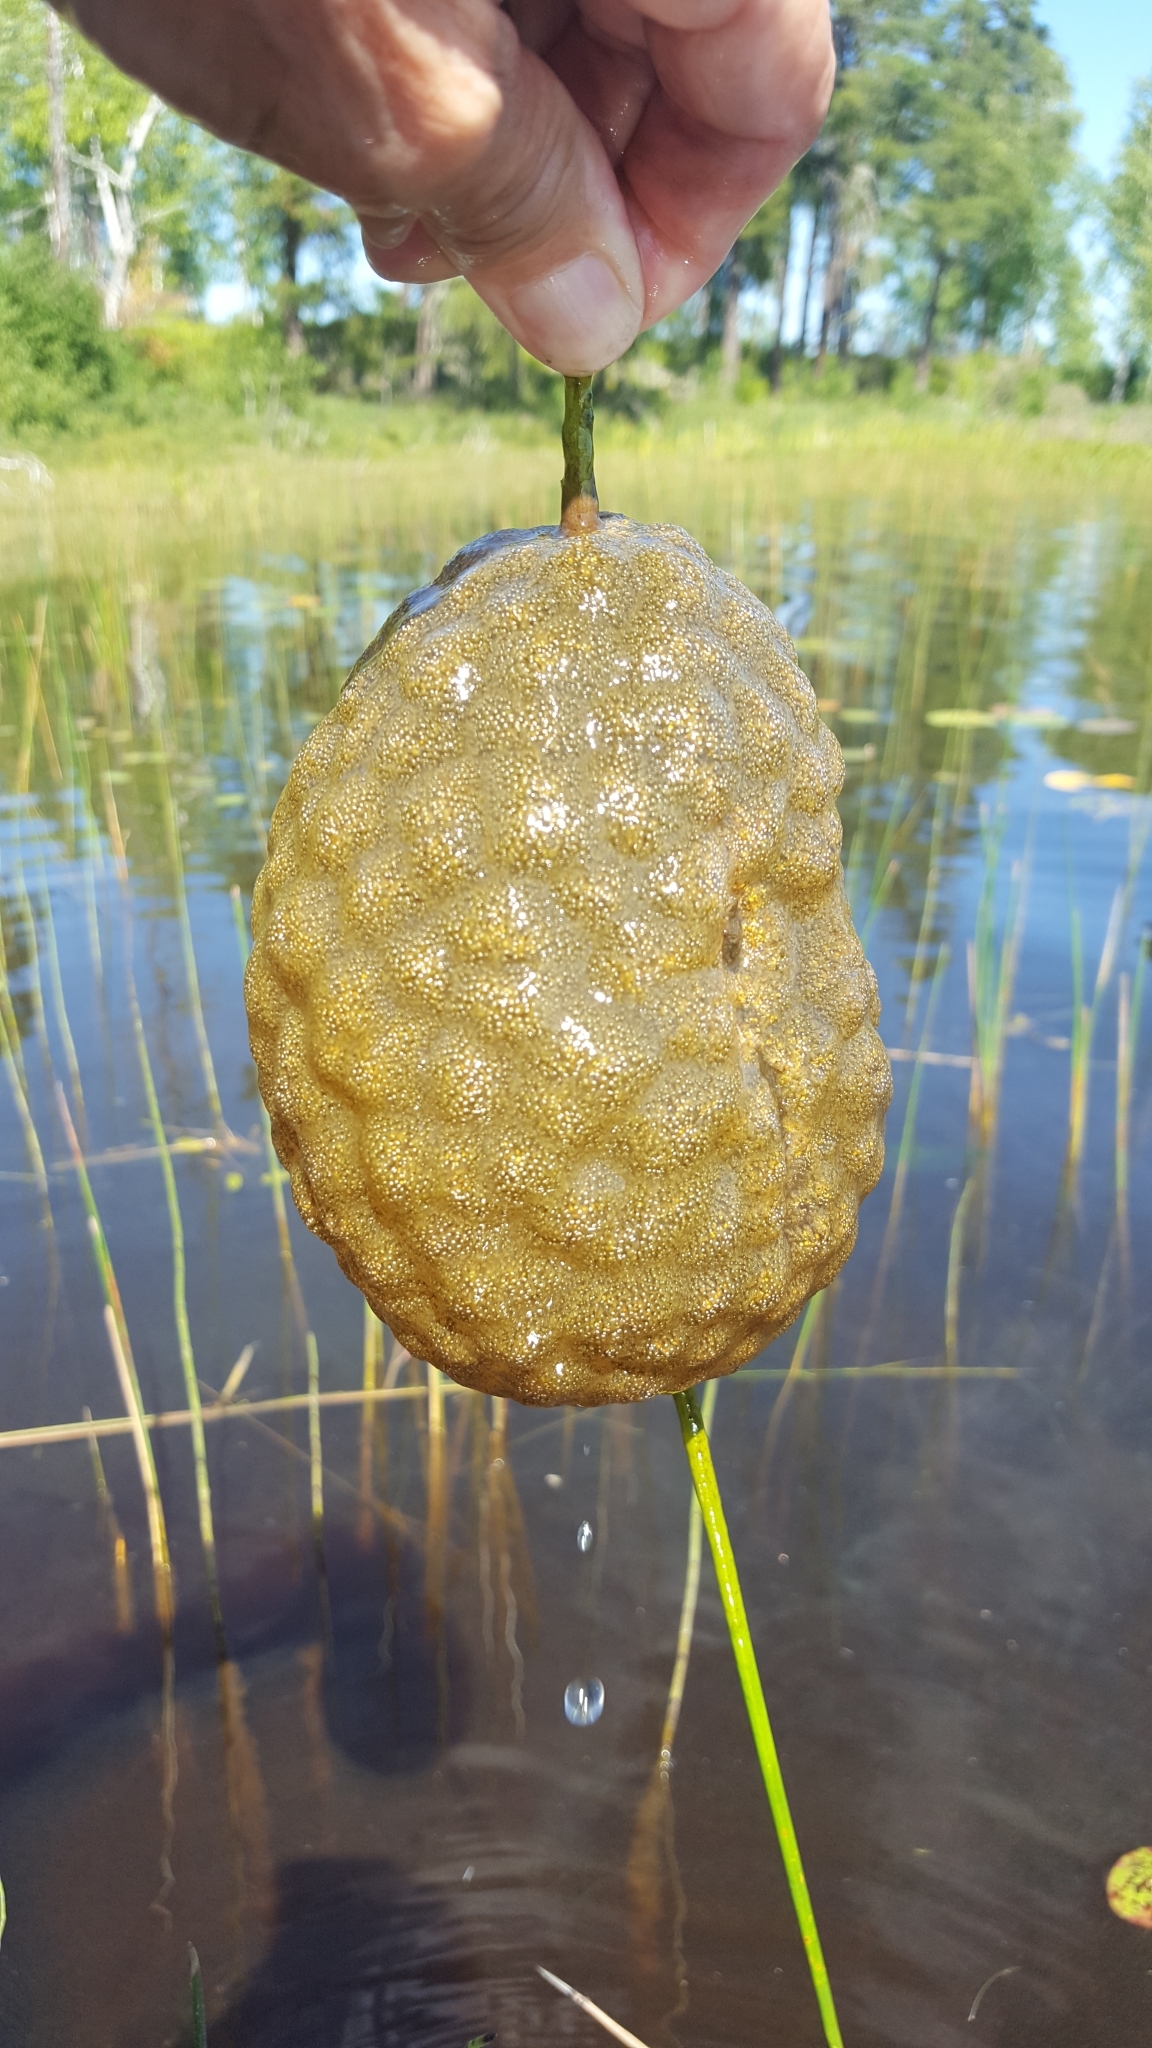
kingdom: Animalia
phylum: Bryozoa
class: Phylactolaemata
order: Plumatellida
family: Pectinatellidae
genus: Pectinatella
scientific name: Pectinatella magnifica
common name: Magnificent bryozoan
